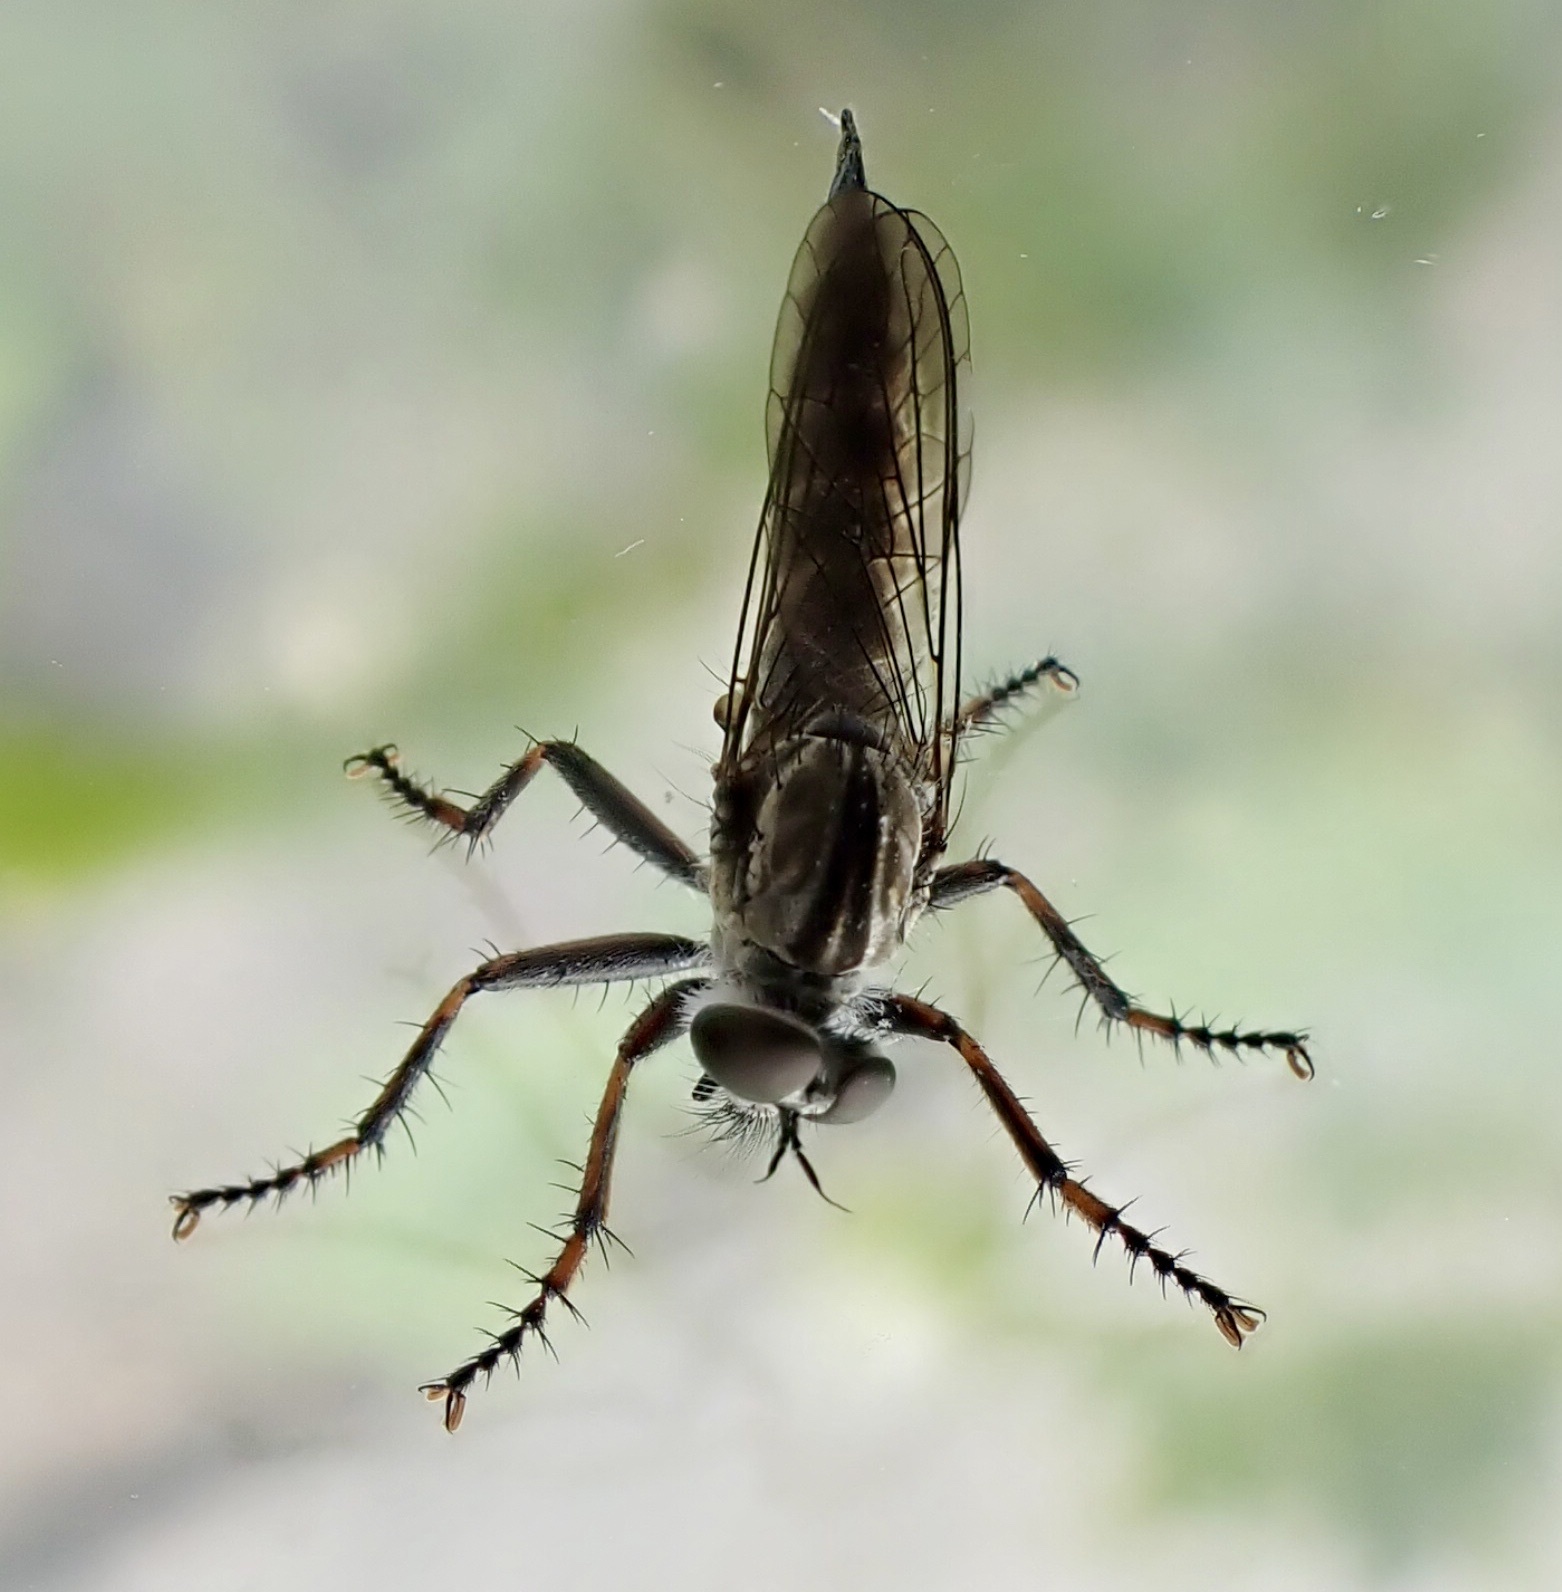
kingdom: Animalia
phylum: Arthropoda
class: Insecta
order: Diptera
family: Asilidae
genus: Machimus
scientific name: Machimus atricapillus
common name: Kite-tailed robberfly
